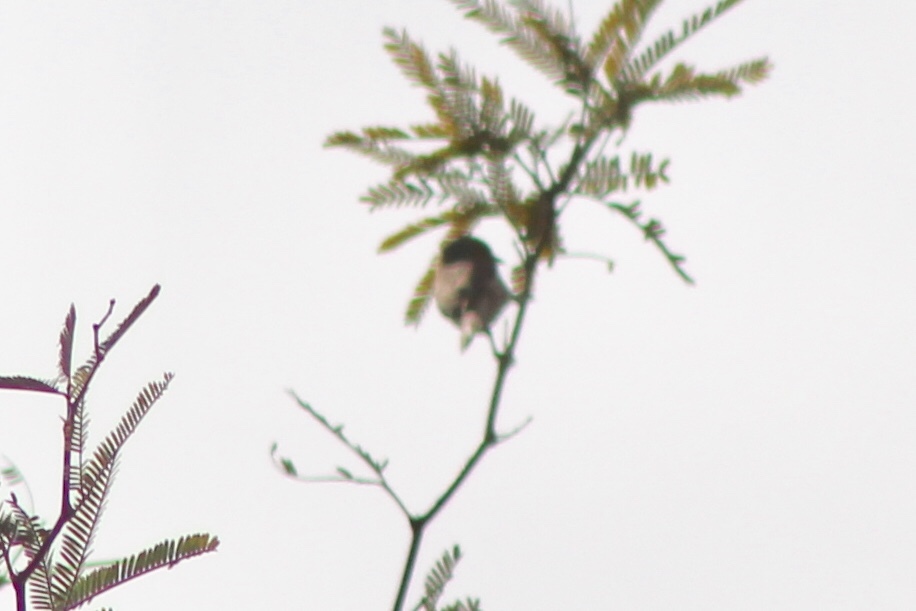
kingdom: Animalia
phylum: Chordata
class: Aves
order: Passeriformes
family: Remizidae
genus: Auriparus
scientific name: Auriparus flaviceps
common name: Verdin
